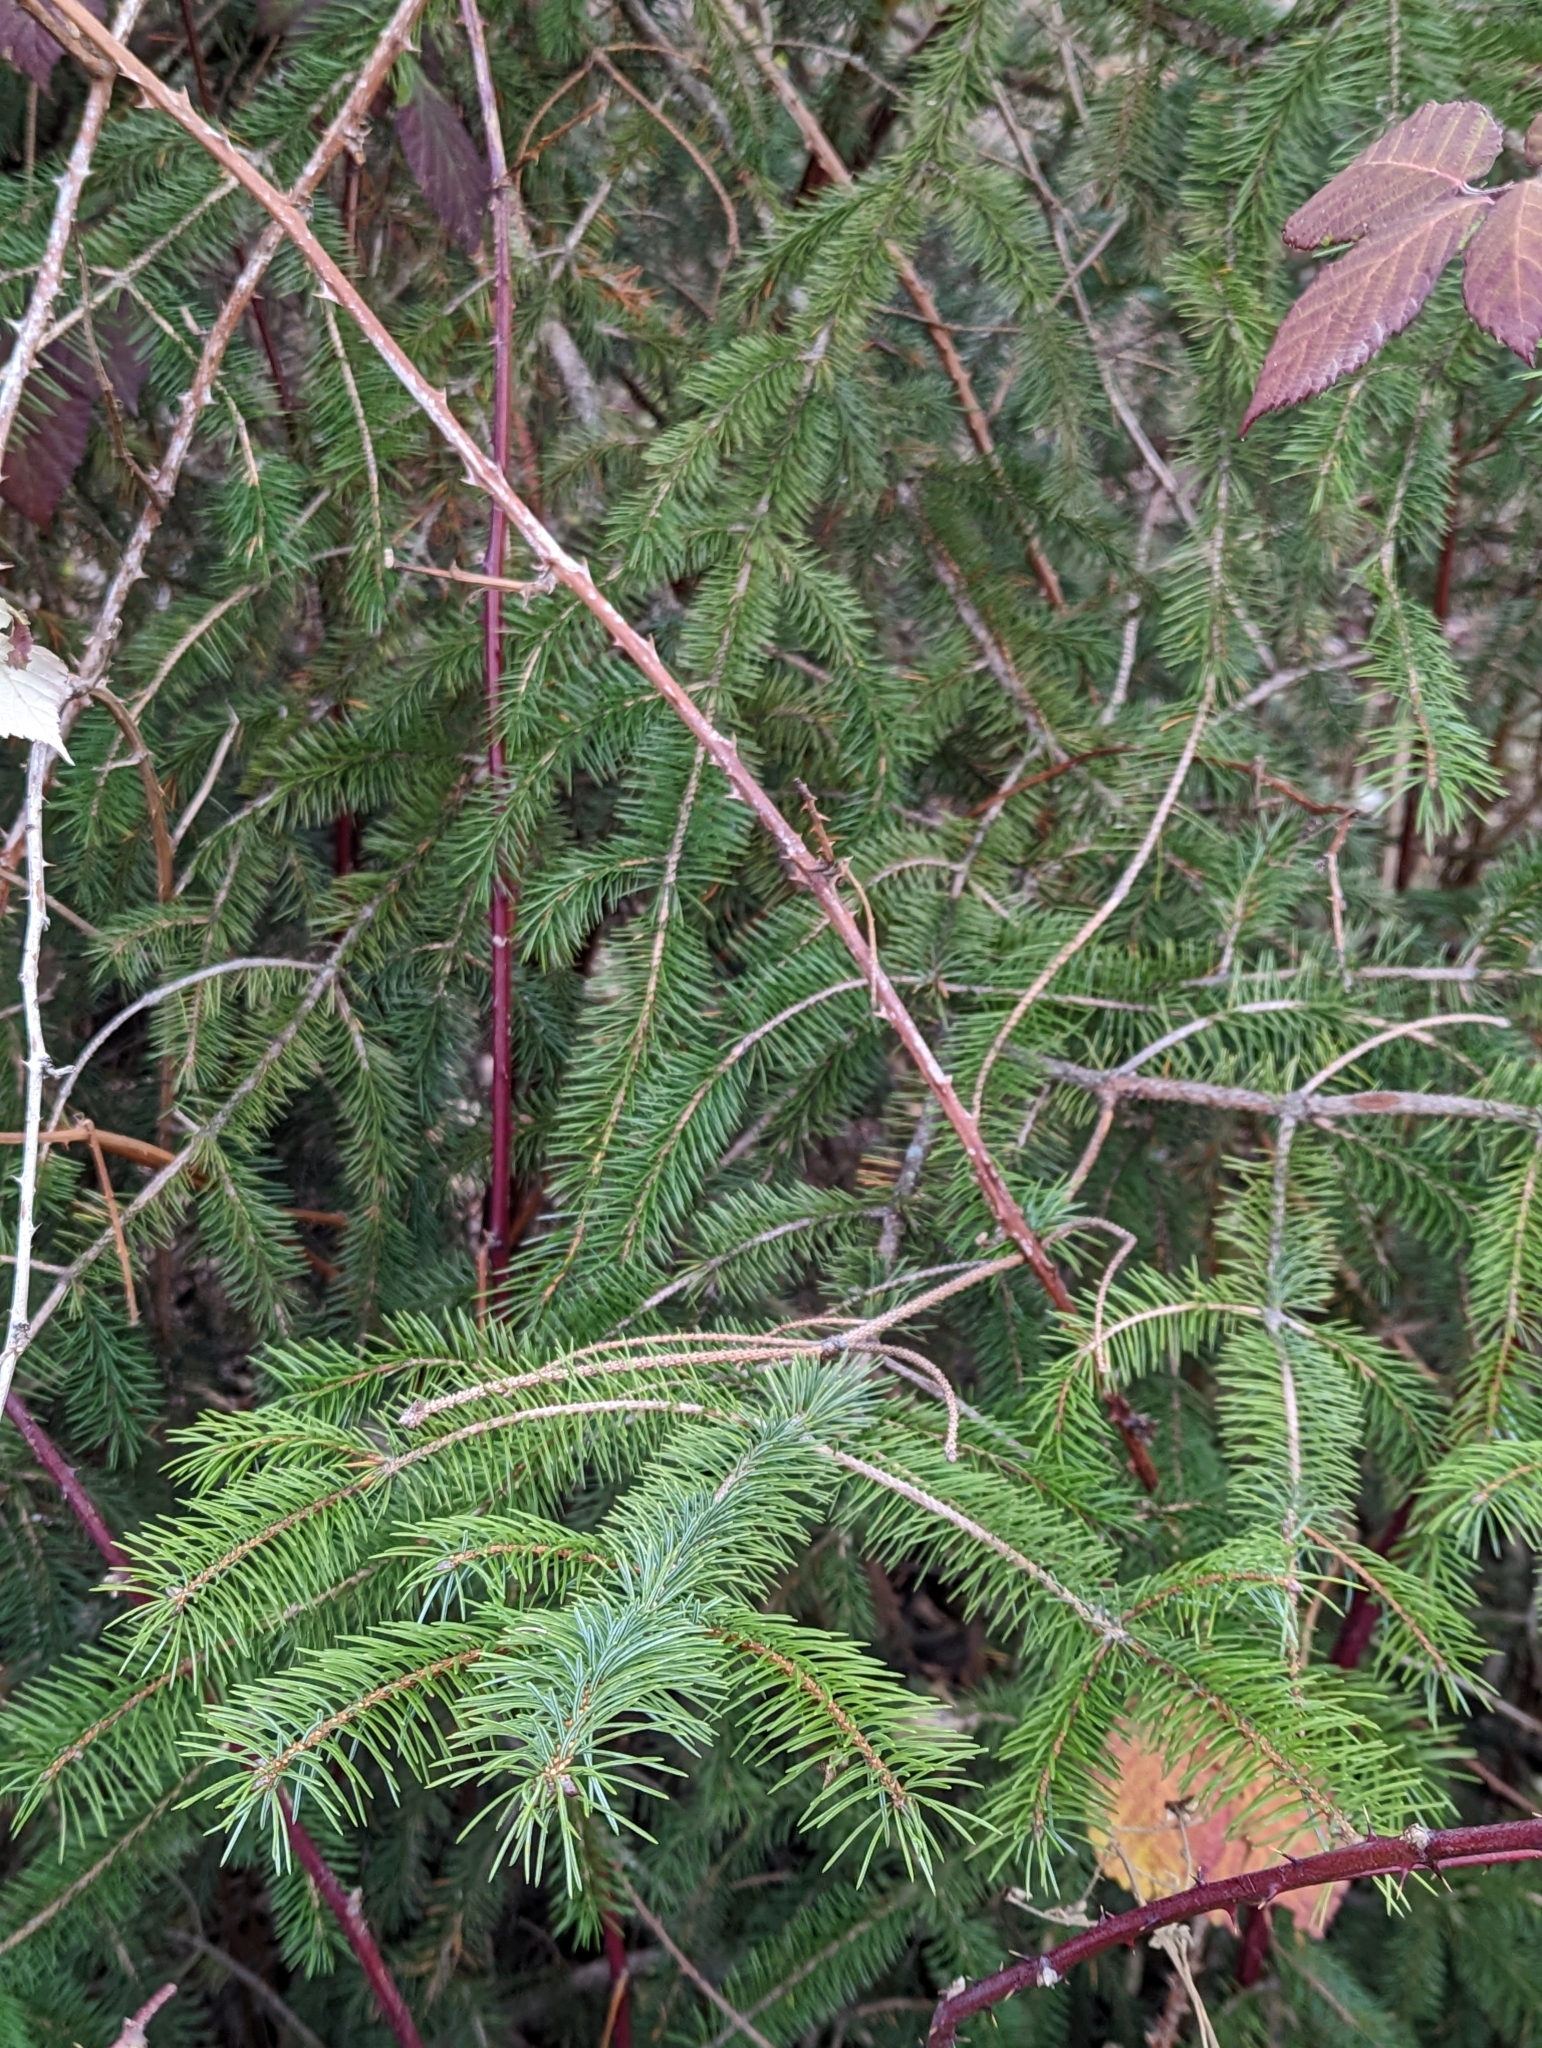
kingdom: Plantae
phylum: Tracheophyta
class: Pinopsida
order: Pinales
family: Pinaceae
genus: Picea
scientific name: Picea sitchensis
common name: Sitka spruce
